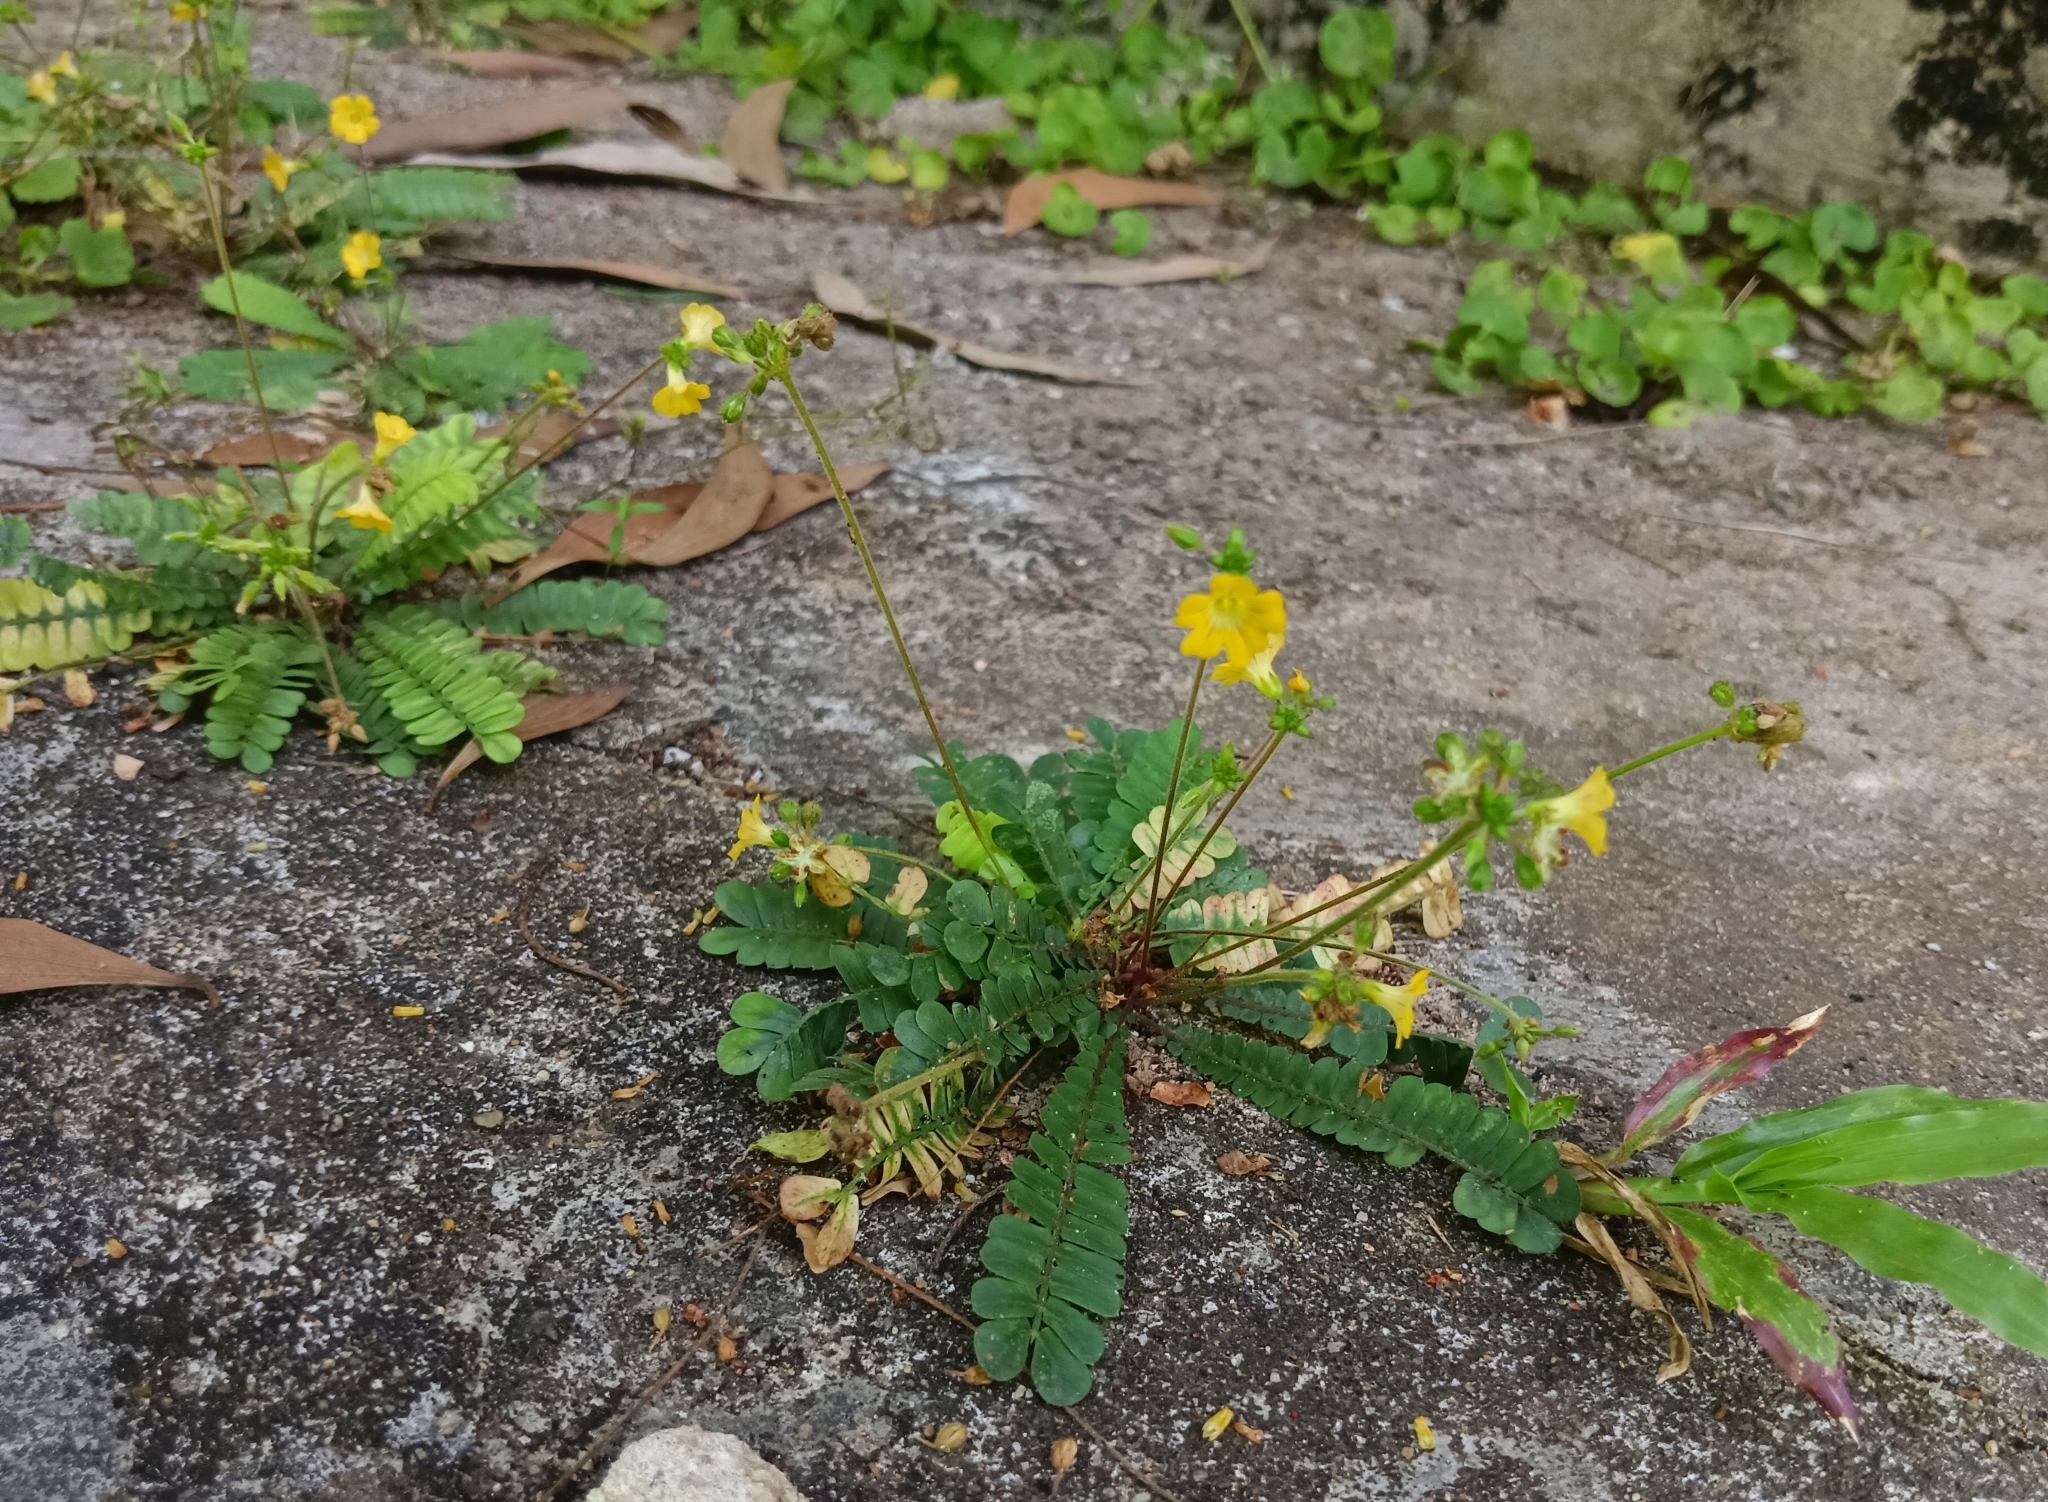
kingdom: Plantae
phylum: Tracheophyta
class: Magnoliopsida
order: Oxalidales
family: Oxalidaceae
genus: Biophytum
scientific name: Biophytum sensitivum
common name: Lifeplant
